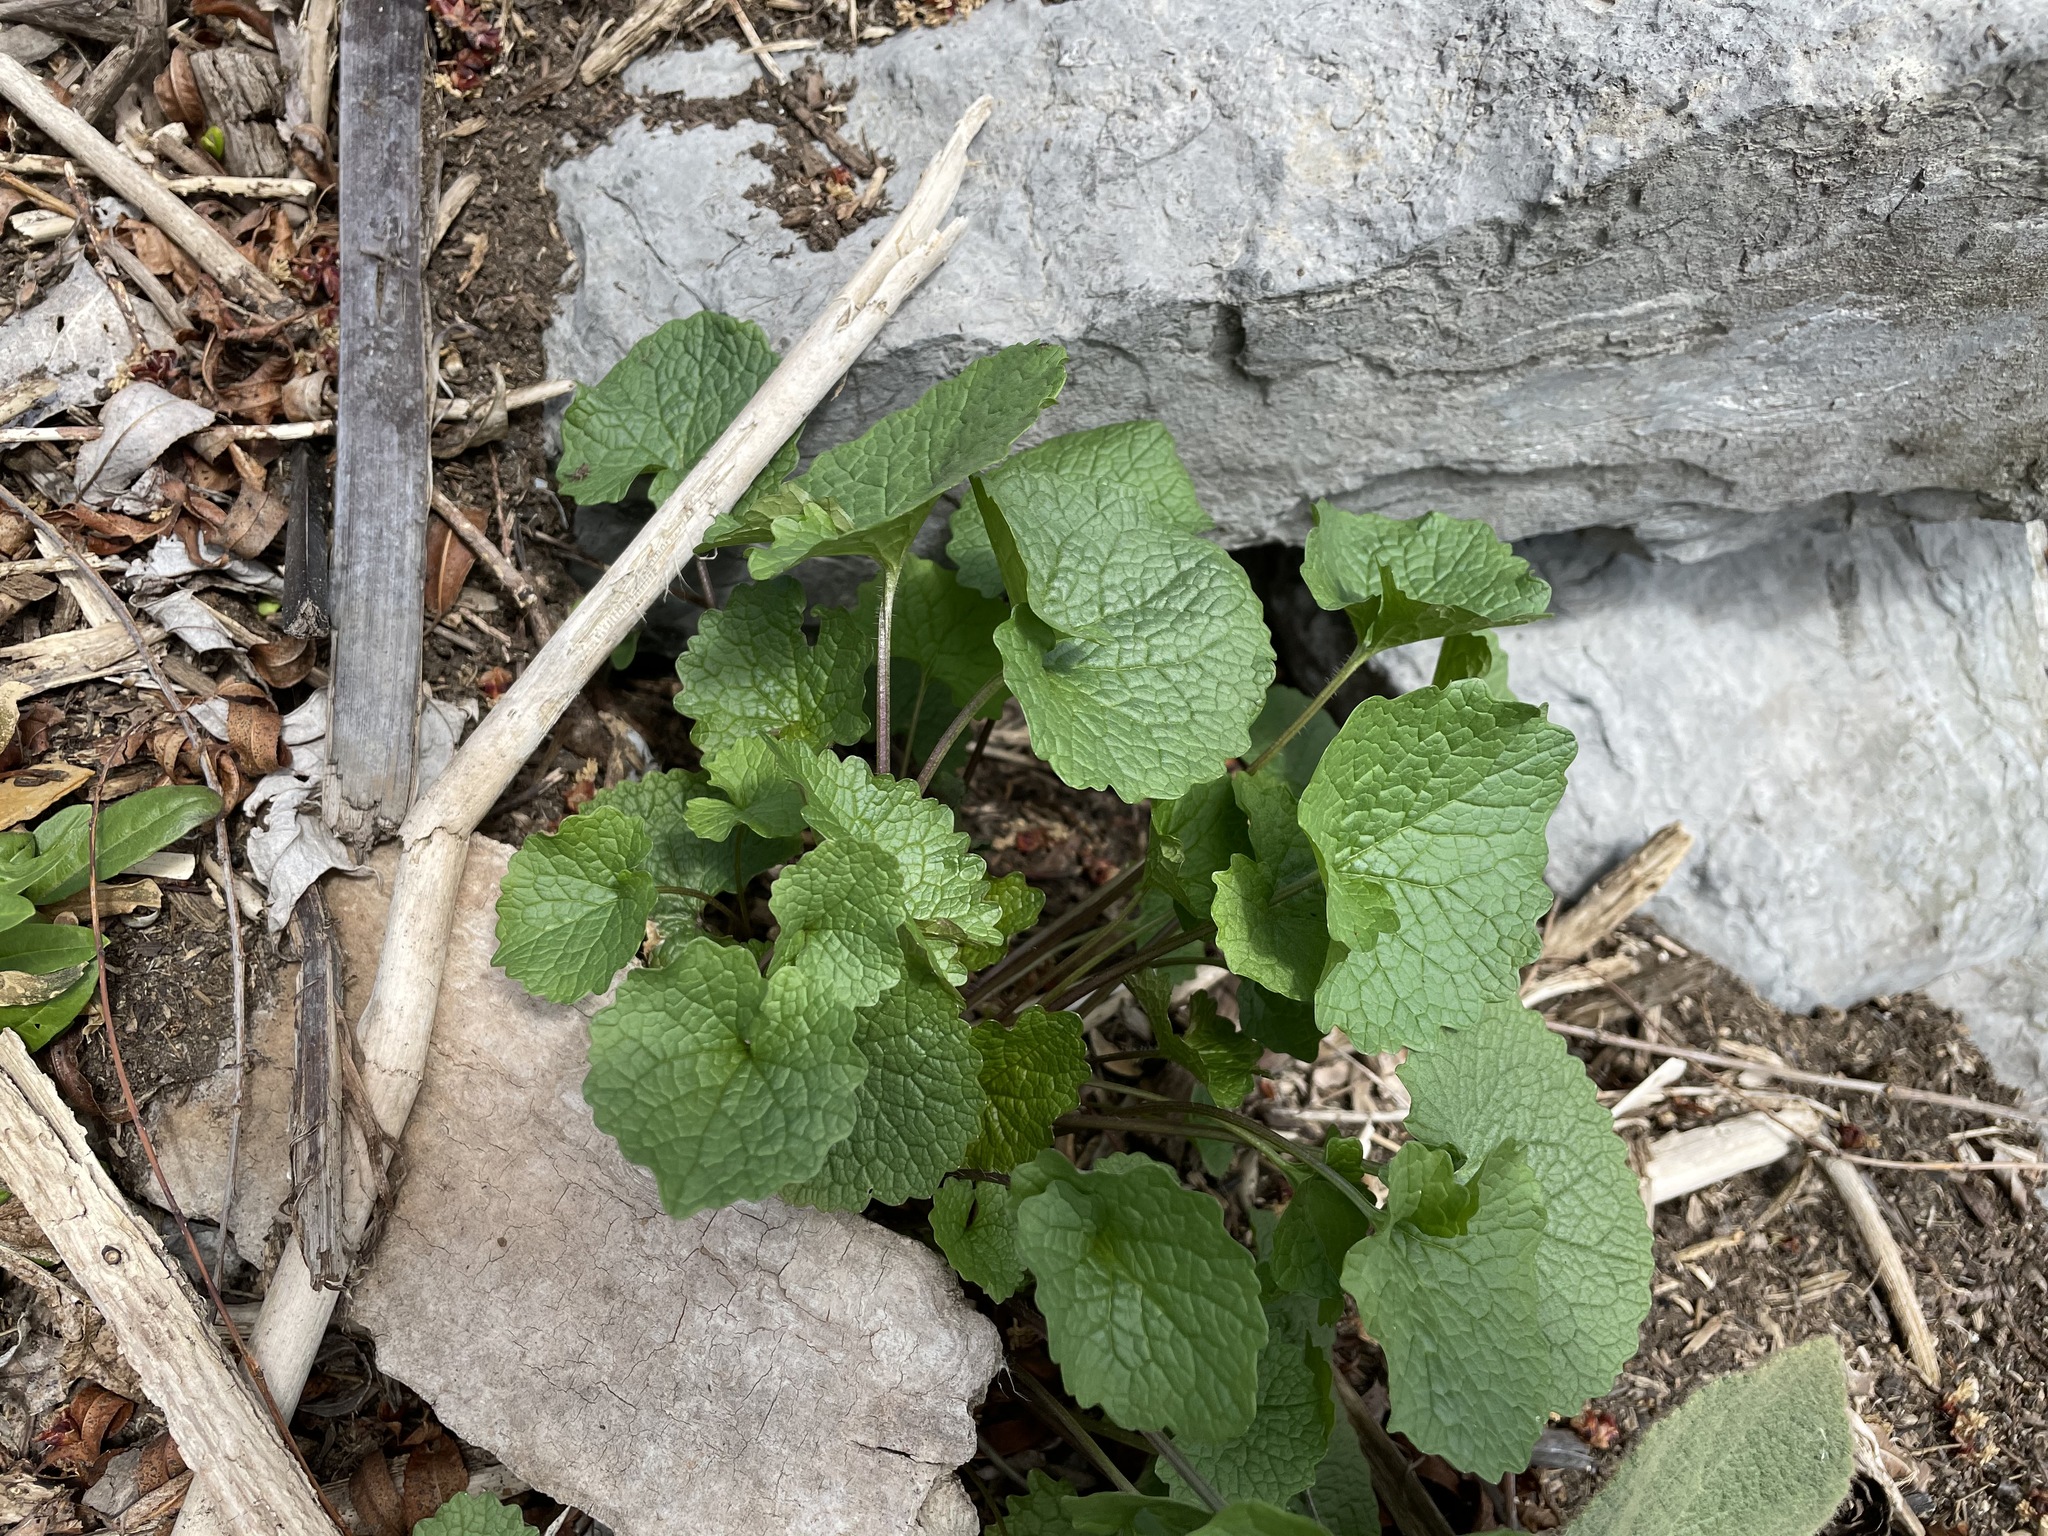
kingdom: Plantae
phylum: Tracheophyta
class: Magnoliopsida
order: Brassicales
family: Brassicaceae
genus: Alliaria
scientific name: Alliaria petiolata
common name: Garlic mustard
